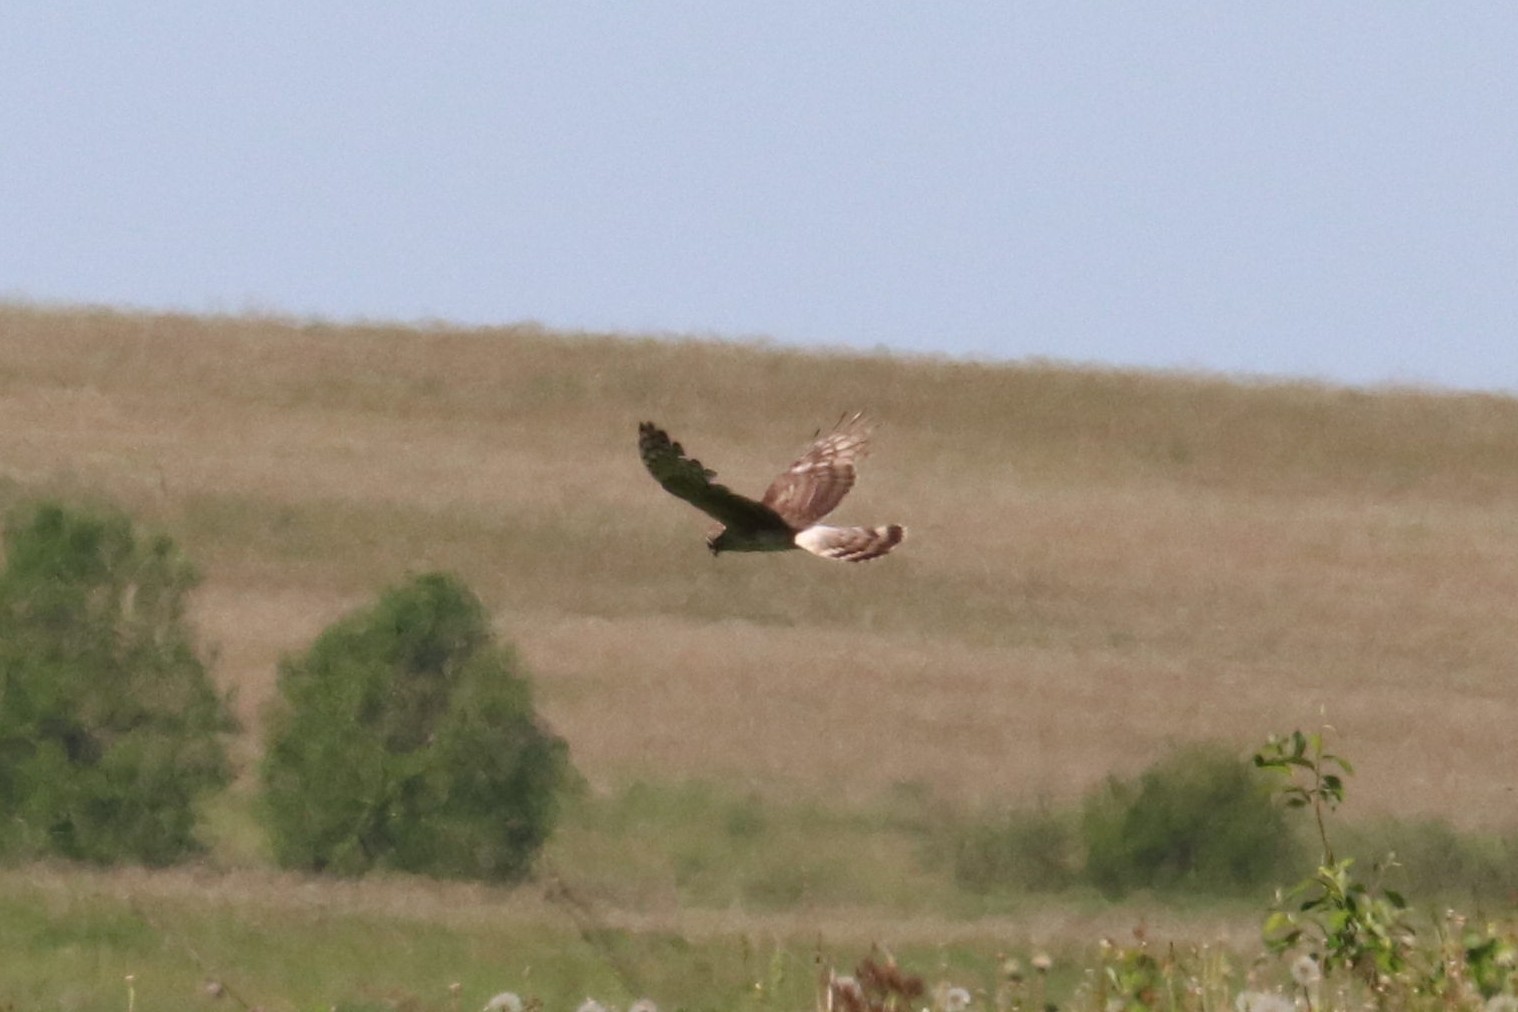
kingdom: Animalia
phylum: Chordata
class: Aves
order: Accipitriformes
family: Accipitridae
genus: Circus
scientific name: Circus cyaneus
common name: Hen harrier
